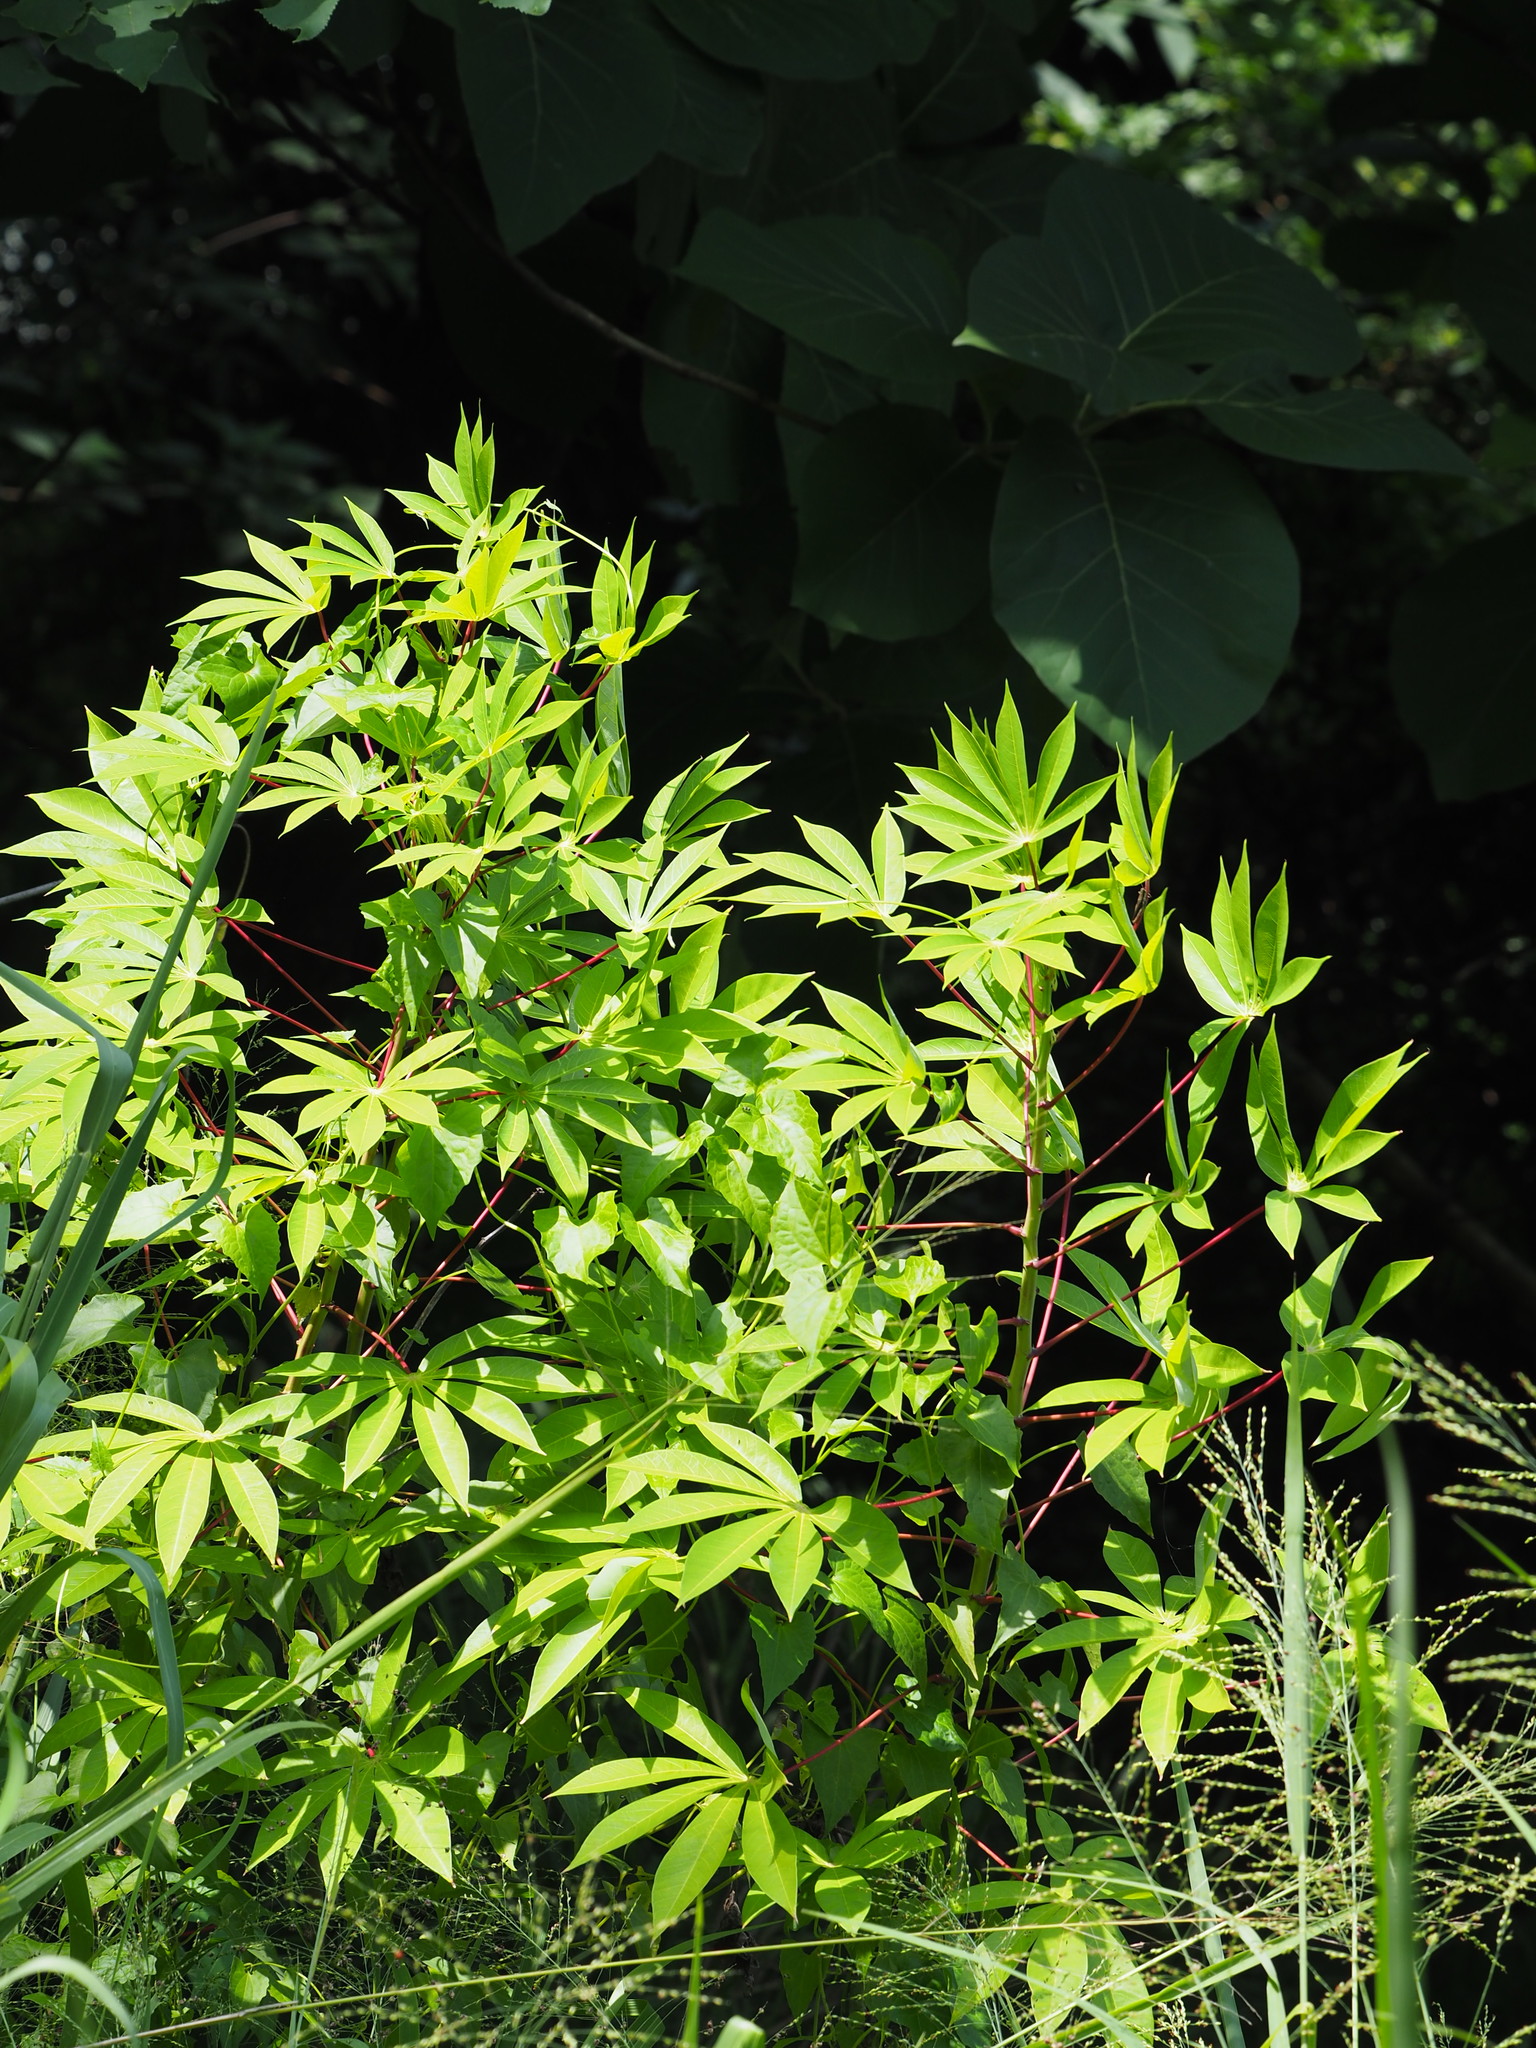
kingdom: Plantae
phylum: Tracheophyta
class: Magnoliopsida
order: Malpighiales
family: Euphorbiaceae
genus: Manihot
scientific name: Manihot esculenta
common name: Cassava
